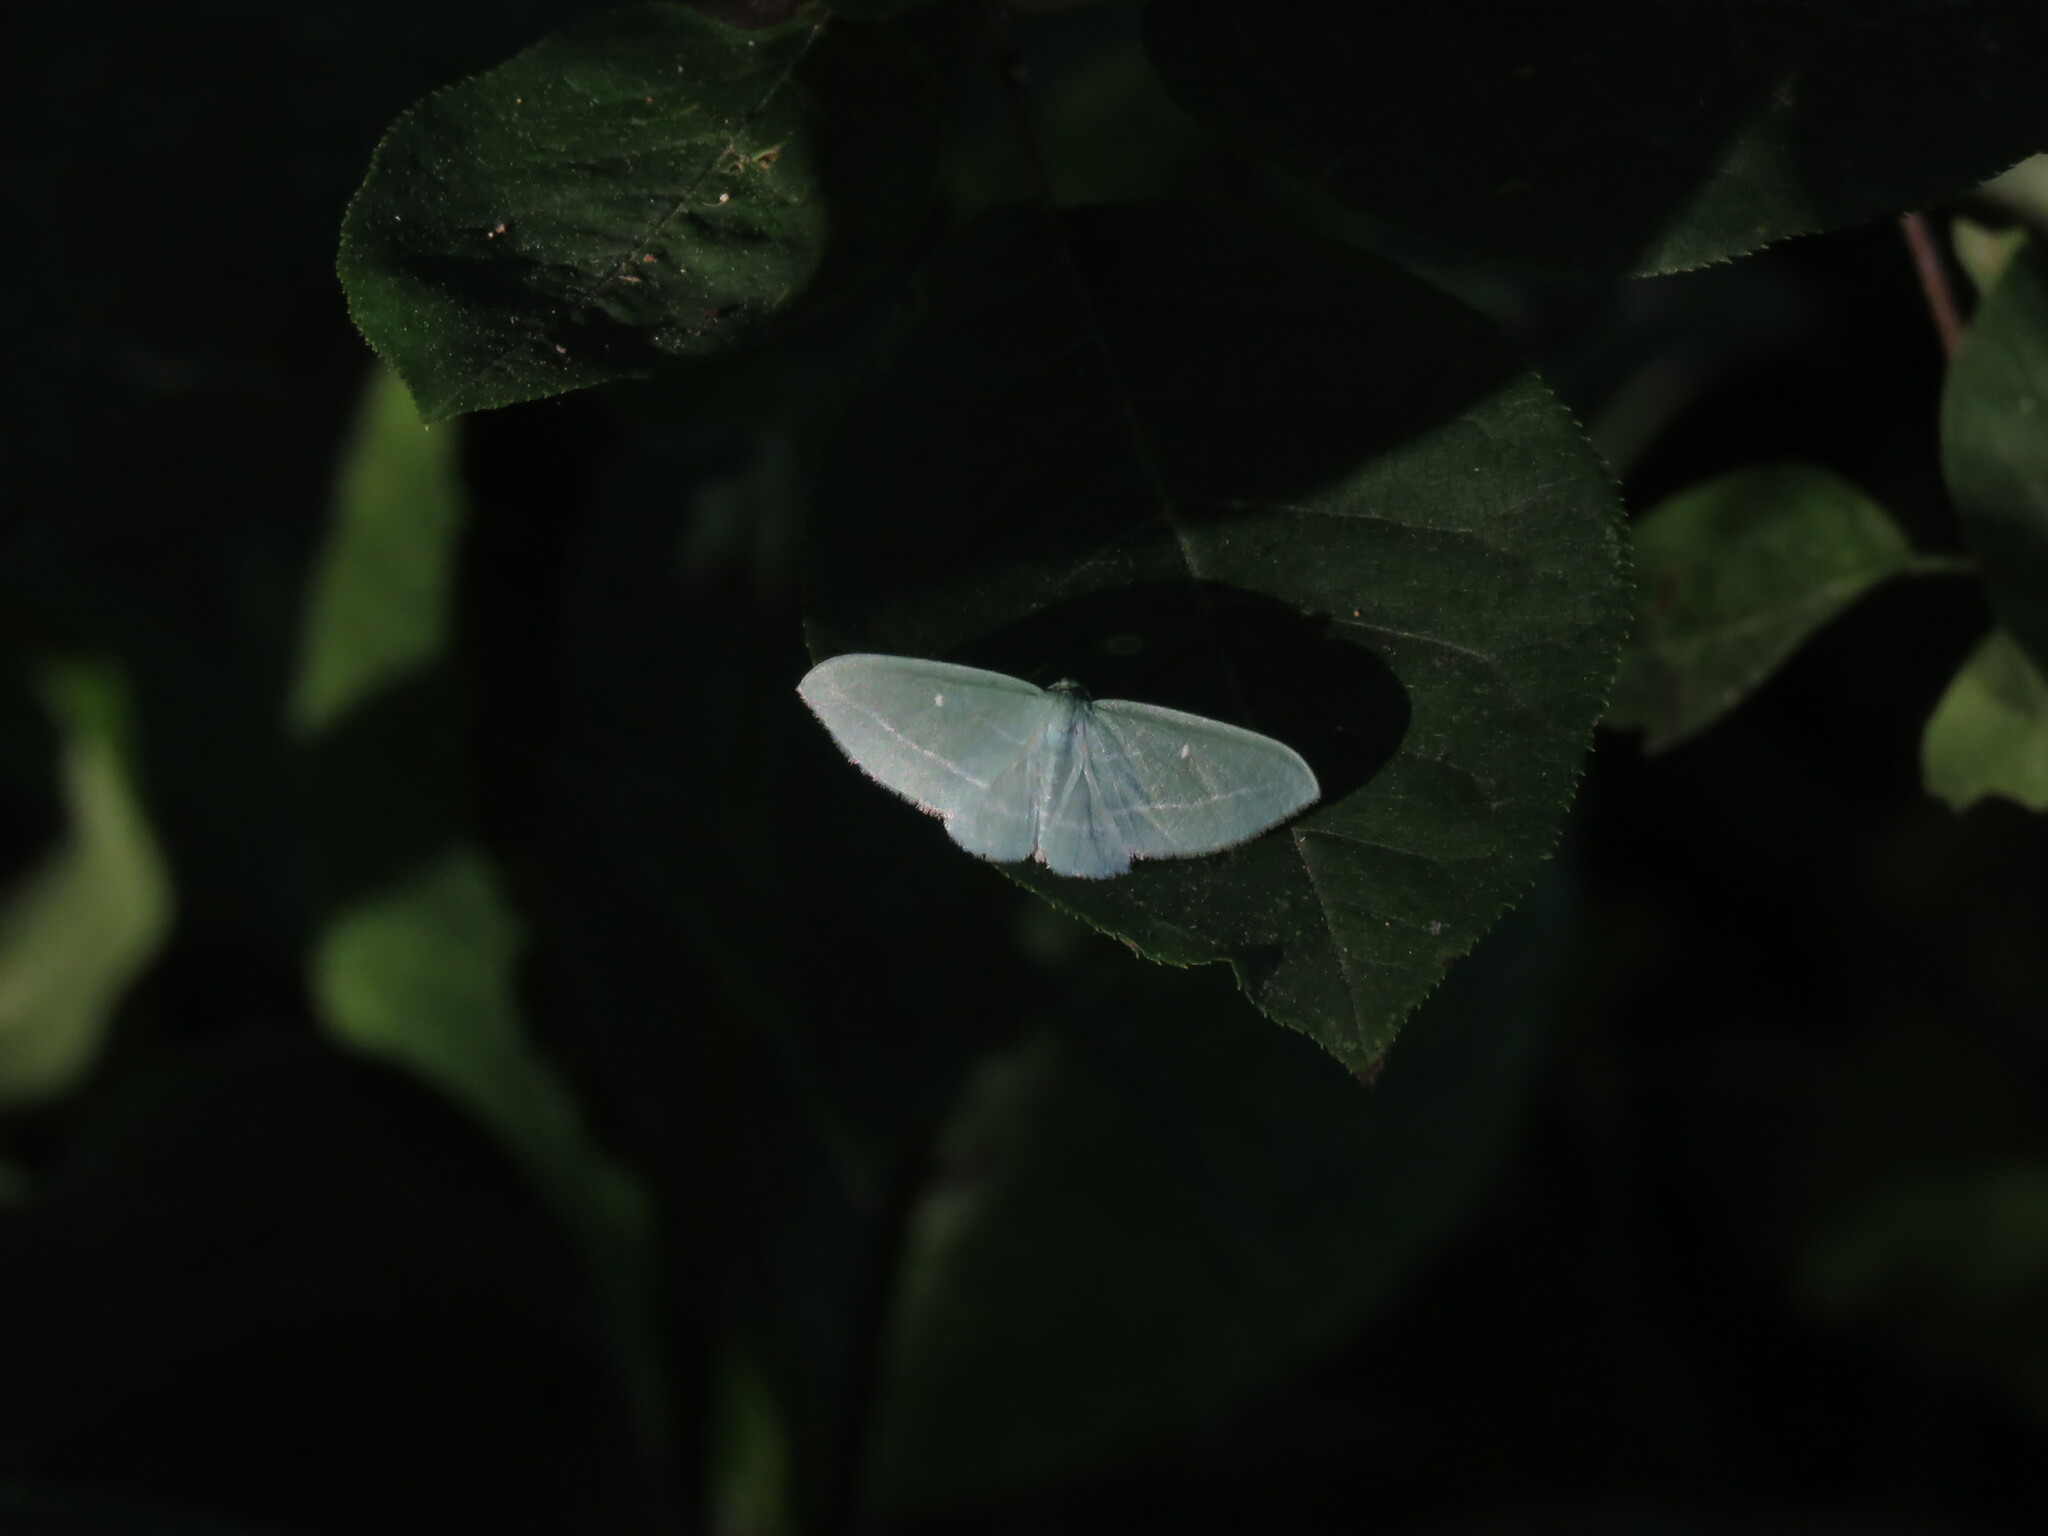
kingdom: Animalia
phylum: Arthropoda
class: Insecta
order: Lepidoptera
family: Geometridae
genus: Dyspteris
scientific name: Dyspteris abortivaria
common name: Bad-wing
